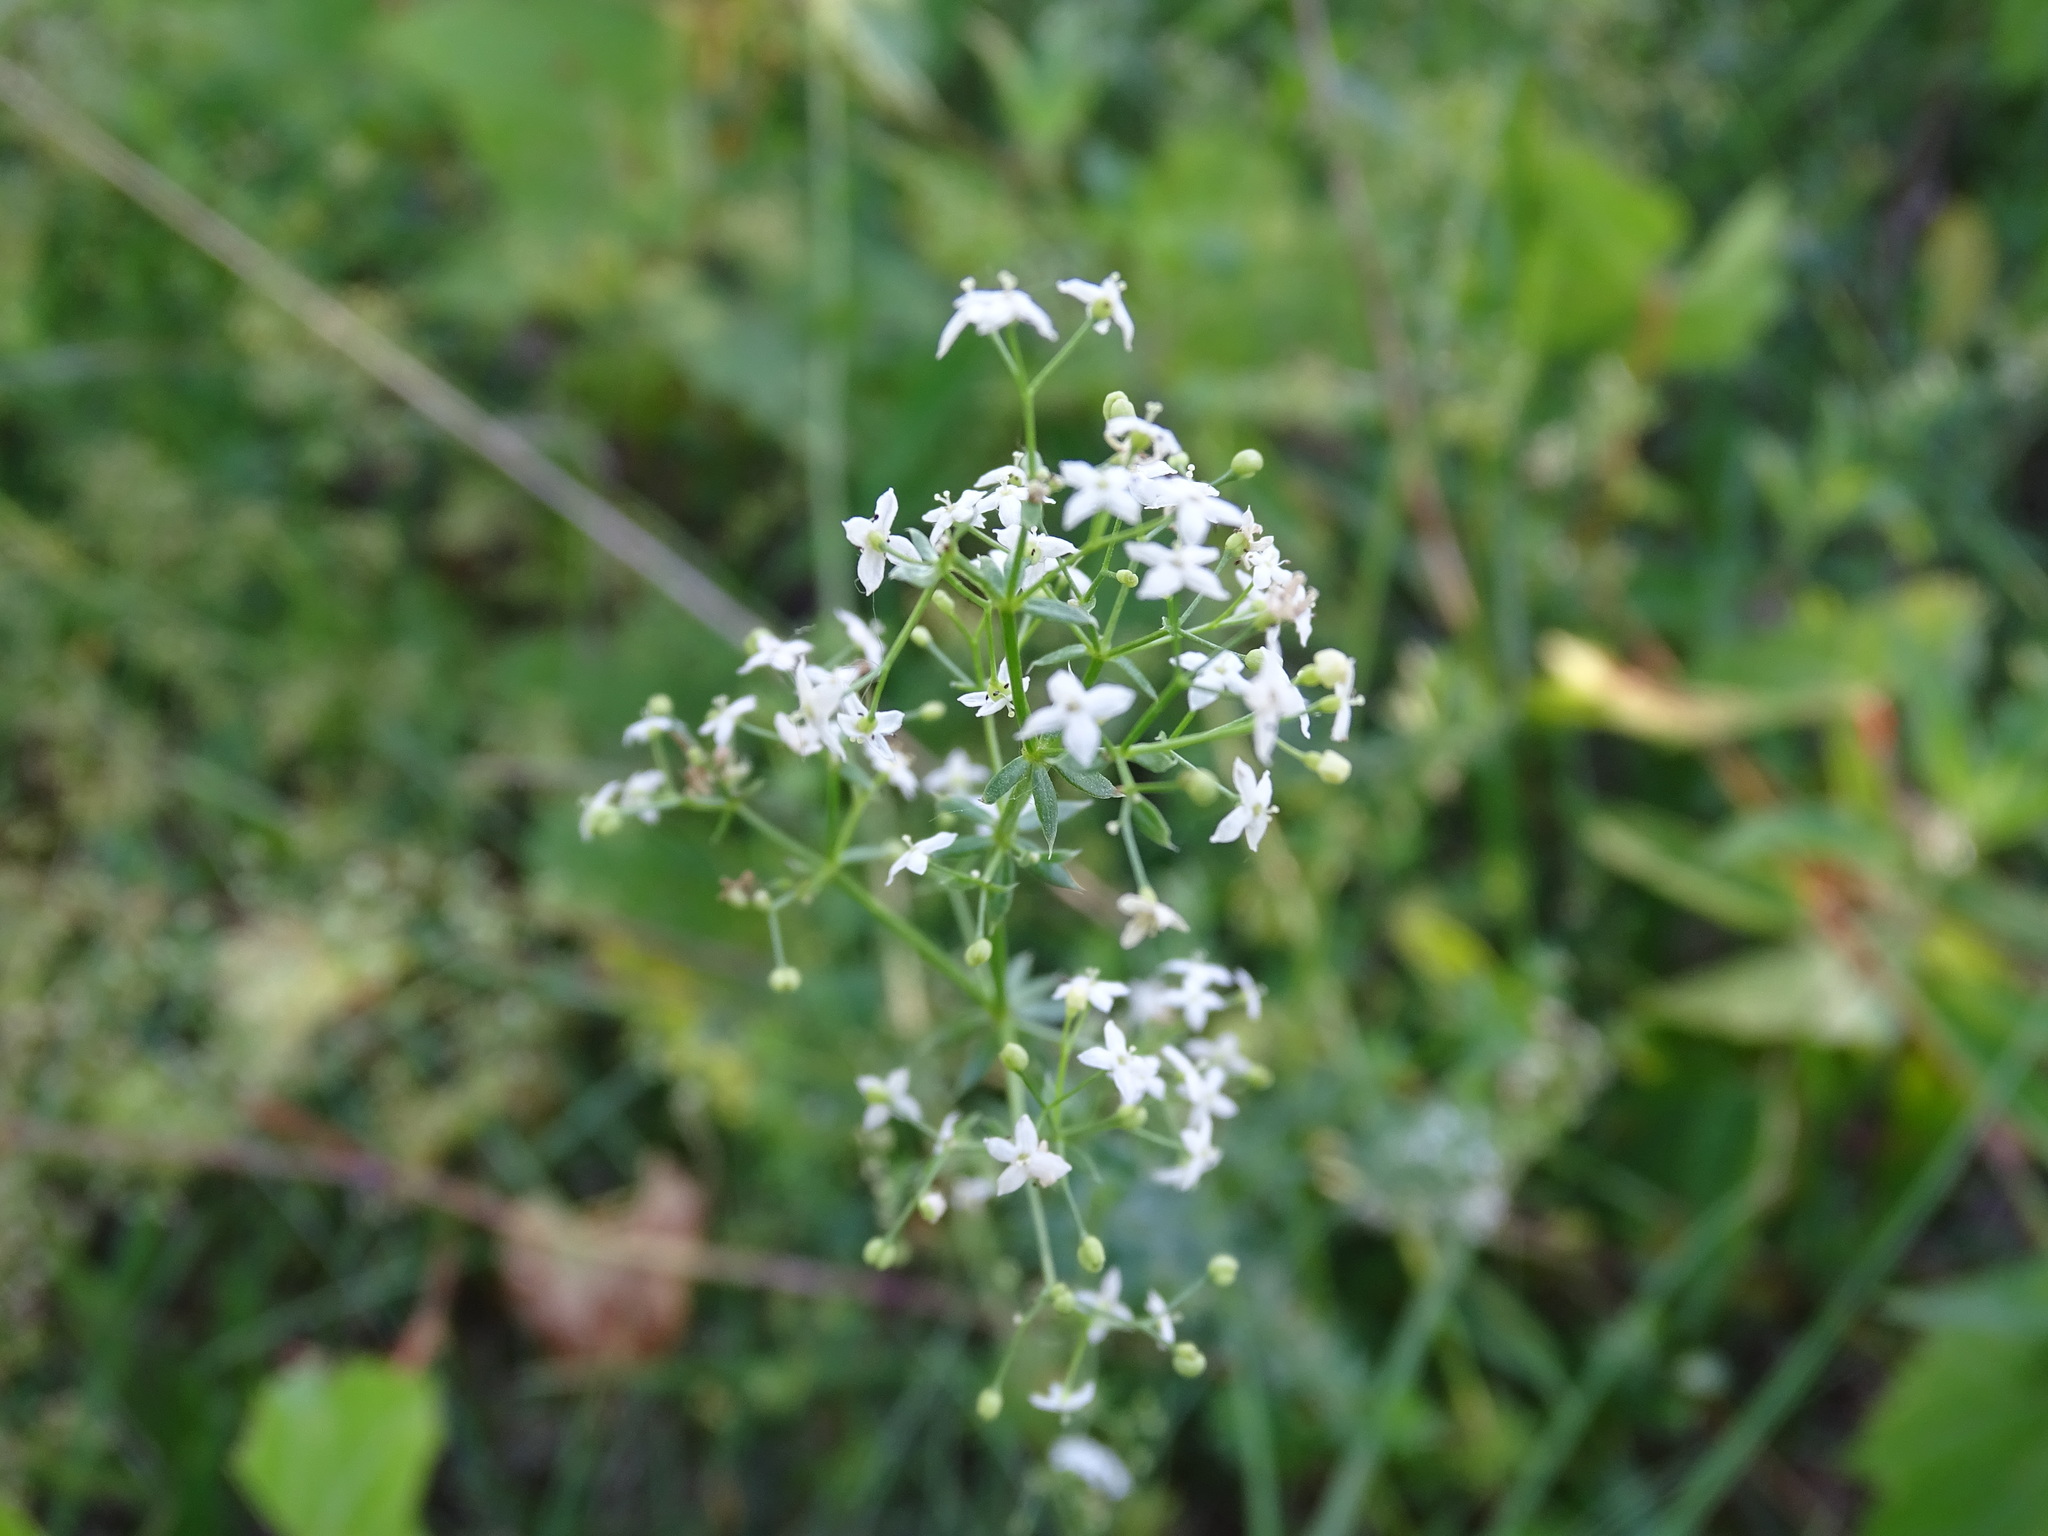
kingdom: Plantae
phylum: Tracheophyta
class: Magnoliopsida
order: Gentianales
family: Rubiaceae
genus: Galium
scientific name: Galium album
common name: White bedstraw
